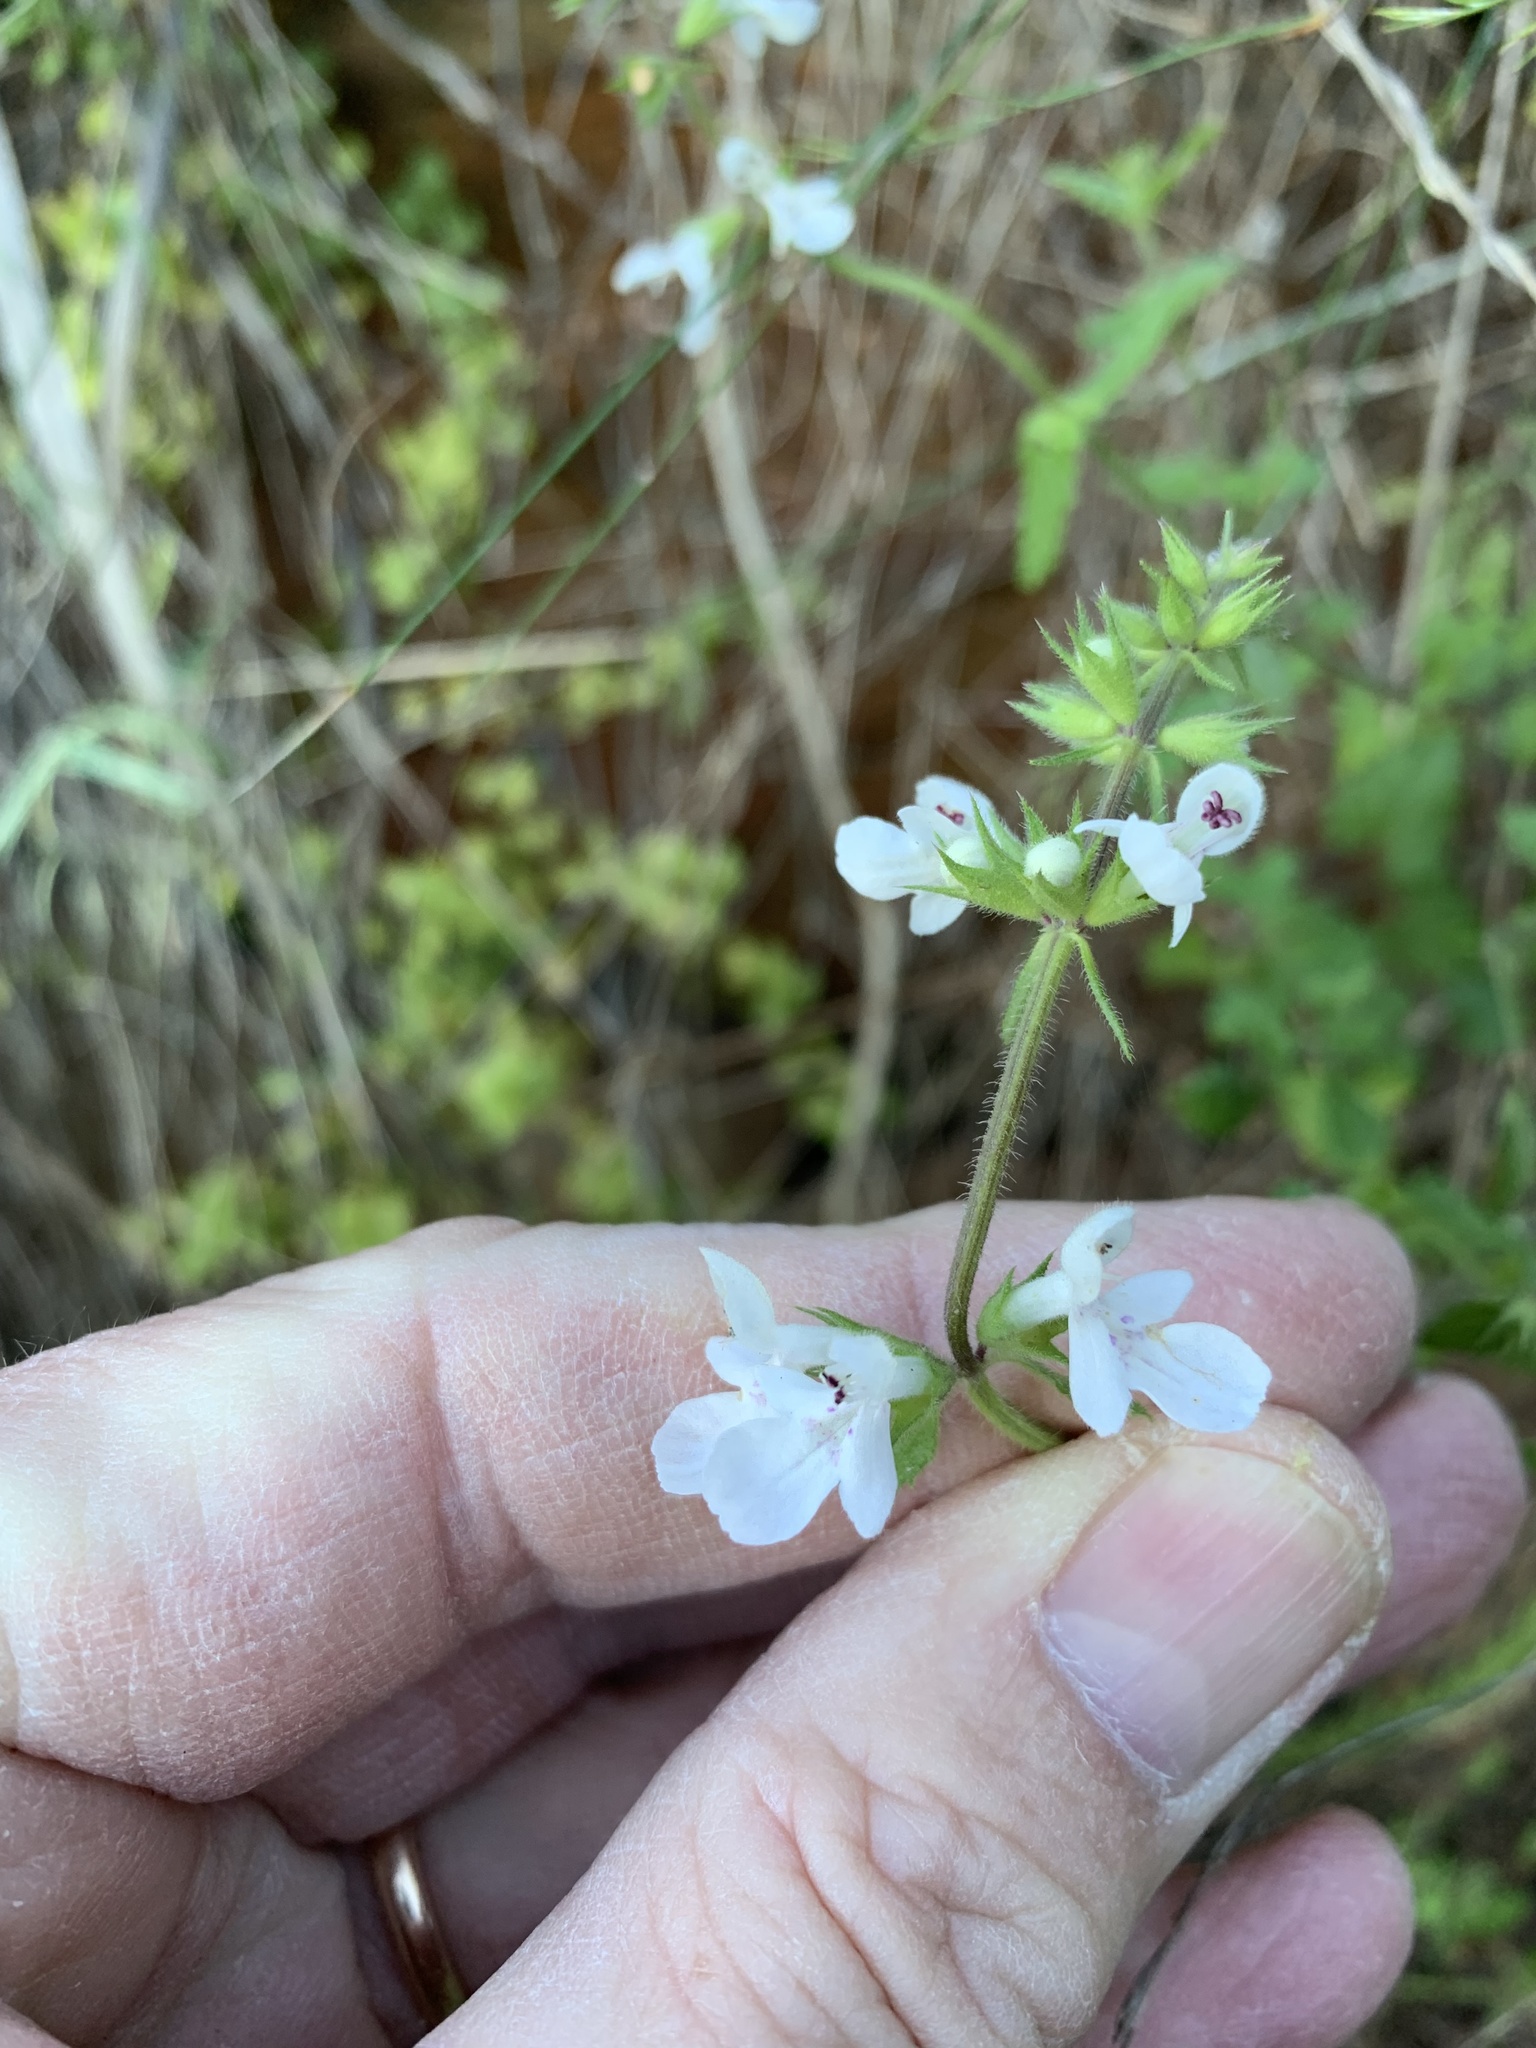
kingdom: Plantae
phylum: Tracheophyta
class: Magnoliopsida
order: Lamiales
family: Lamiaceae
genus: Stachys
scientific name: Stachys aethiopica
